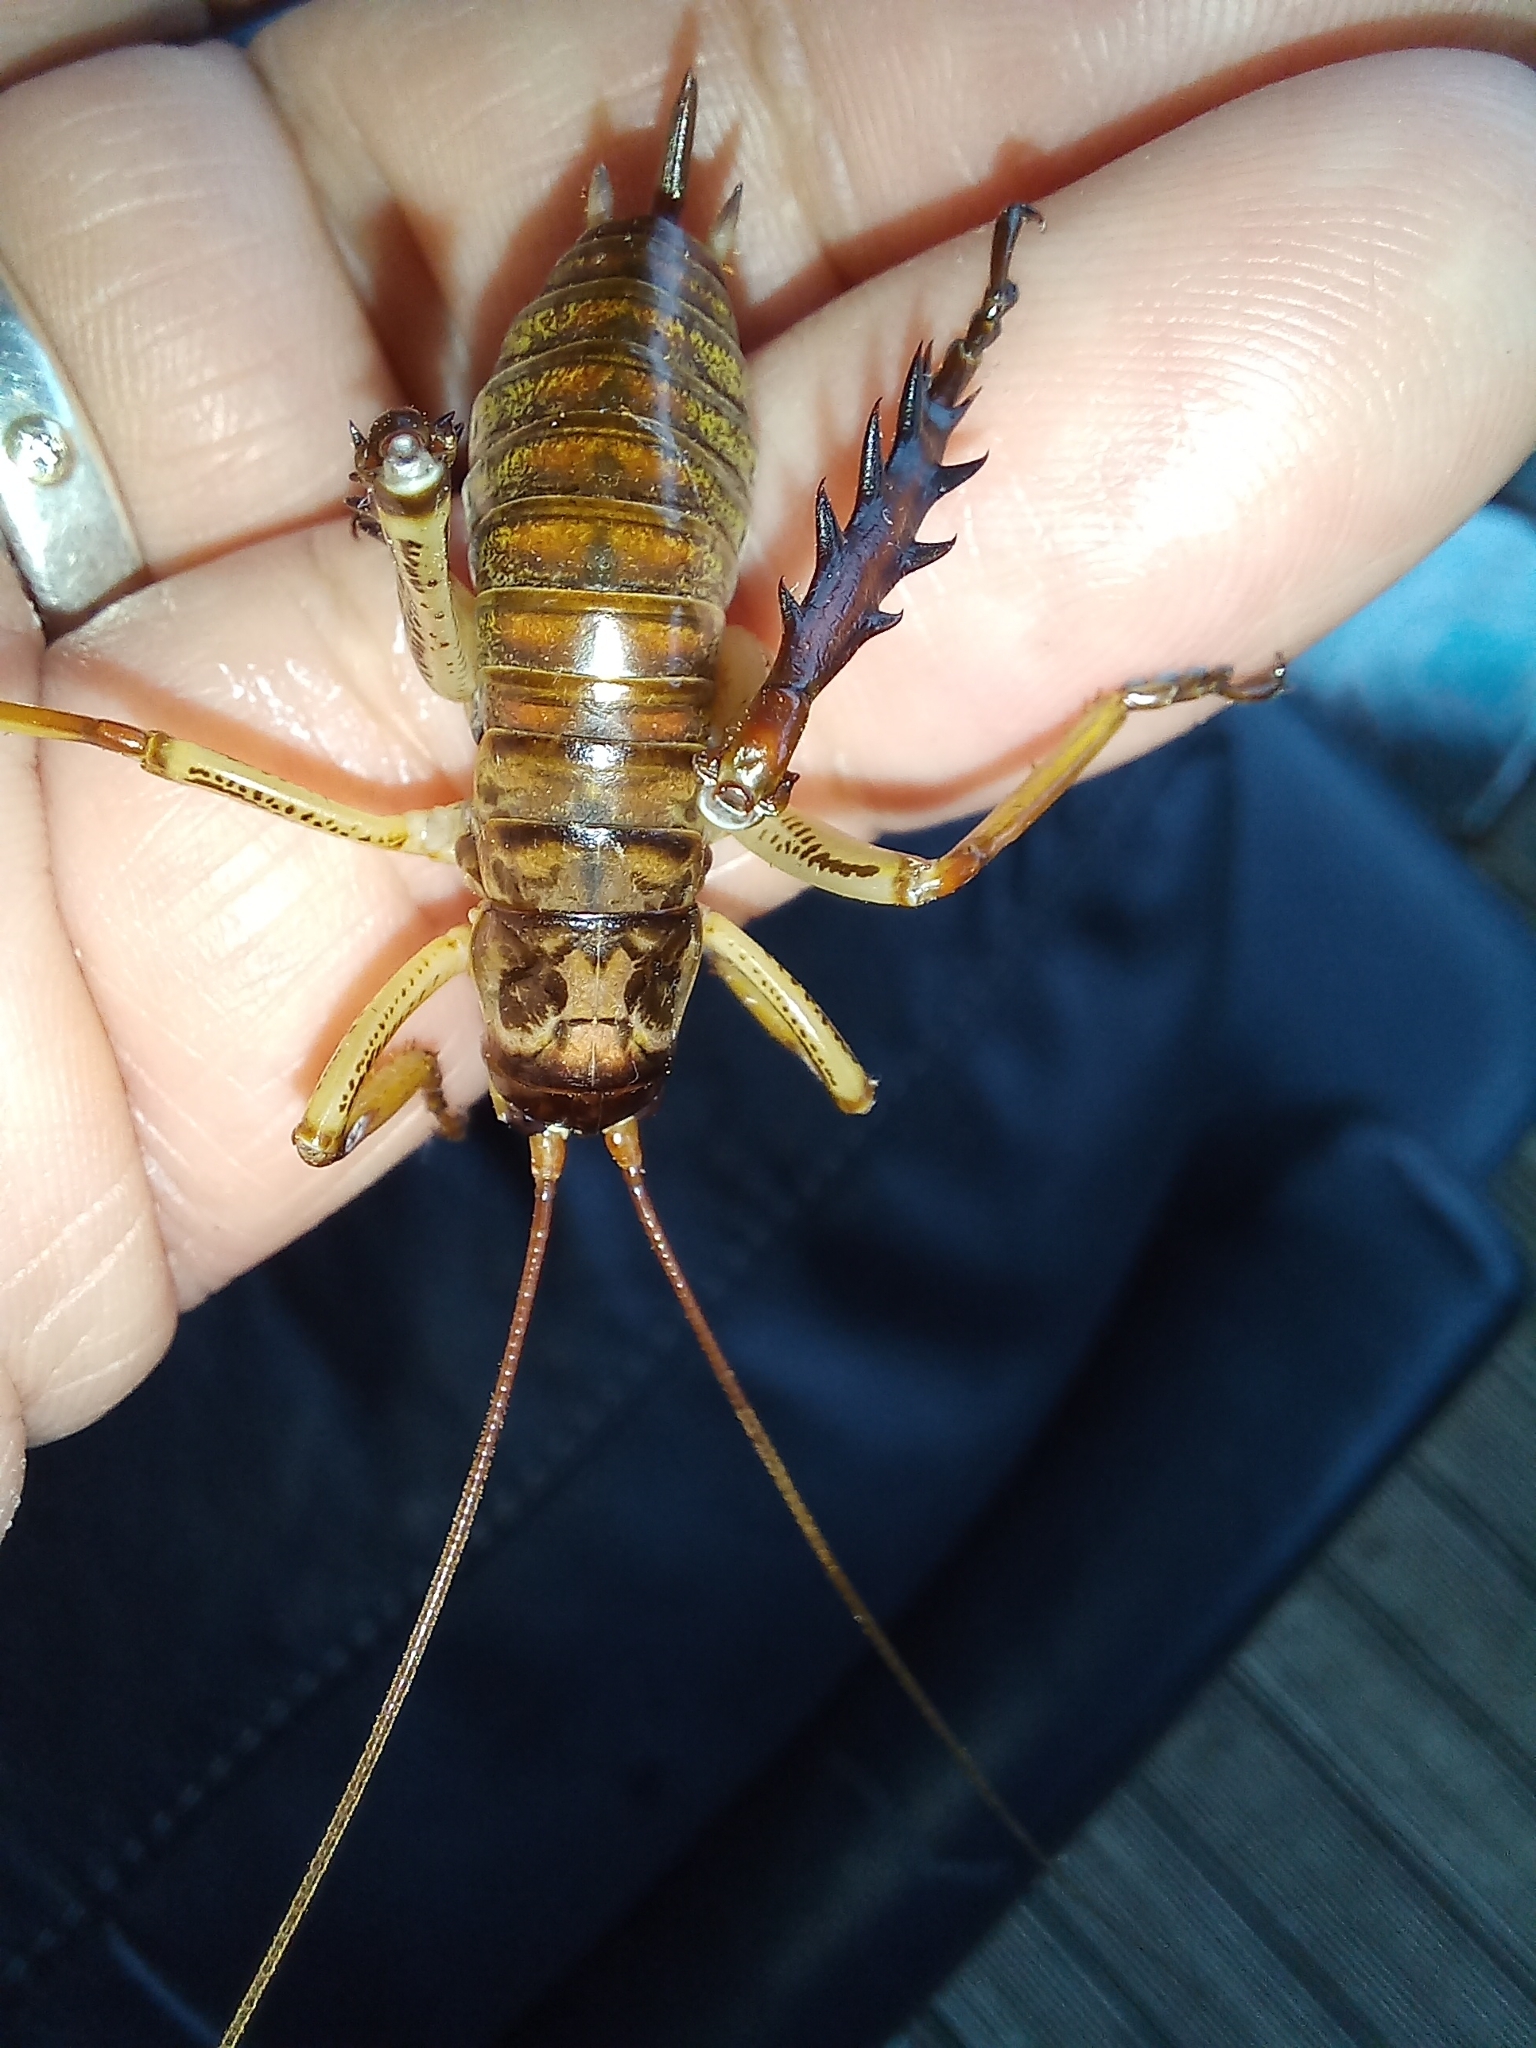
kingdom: Animalia
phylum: Arthropoda
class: Insecta
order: Orthoptera
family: Anostostomatidae
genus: Hemideina
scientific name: Hemideina thoracica
